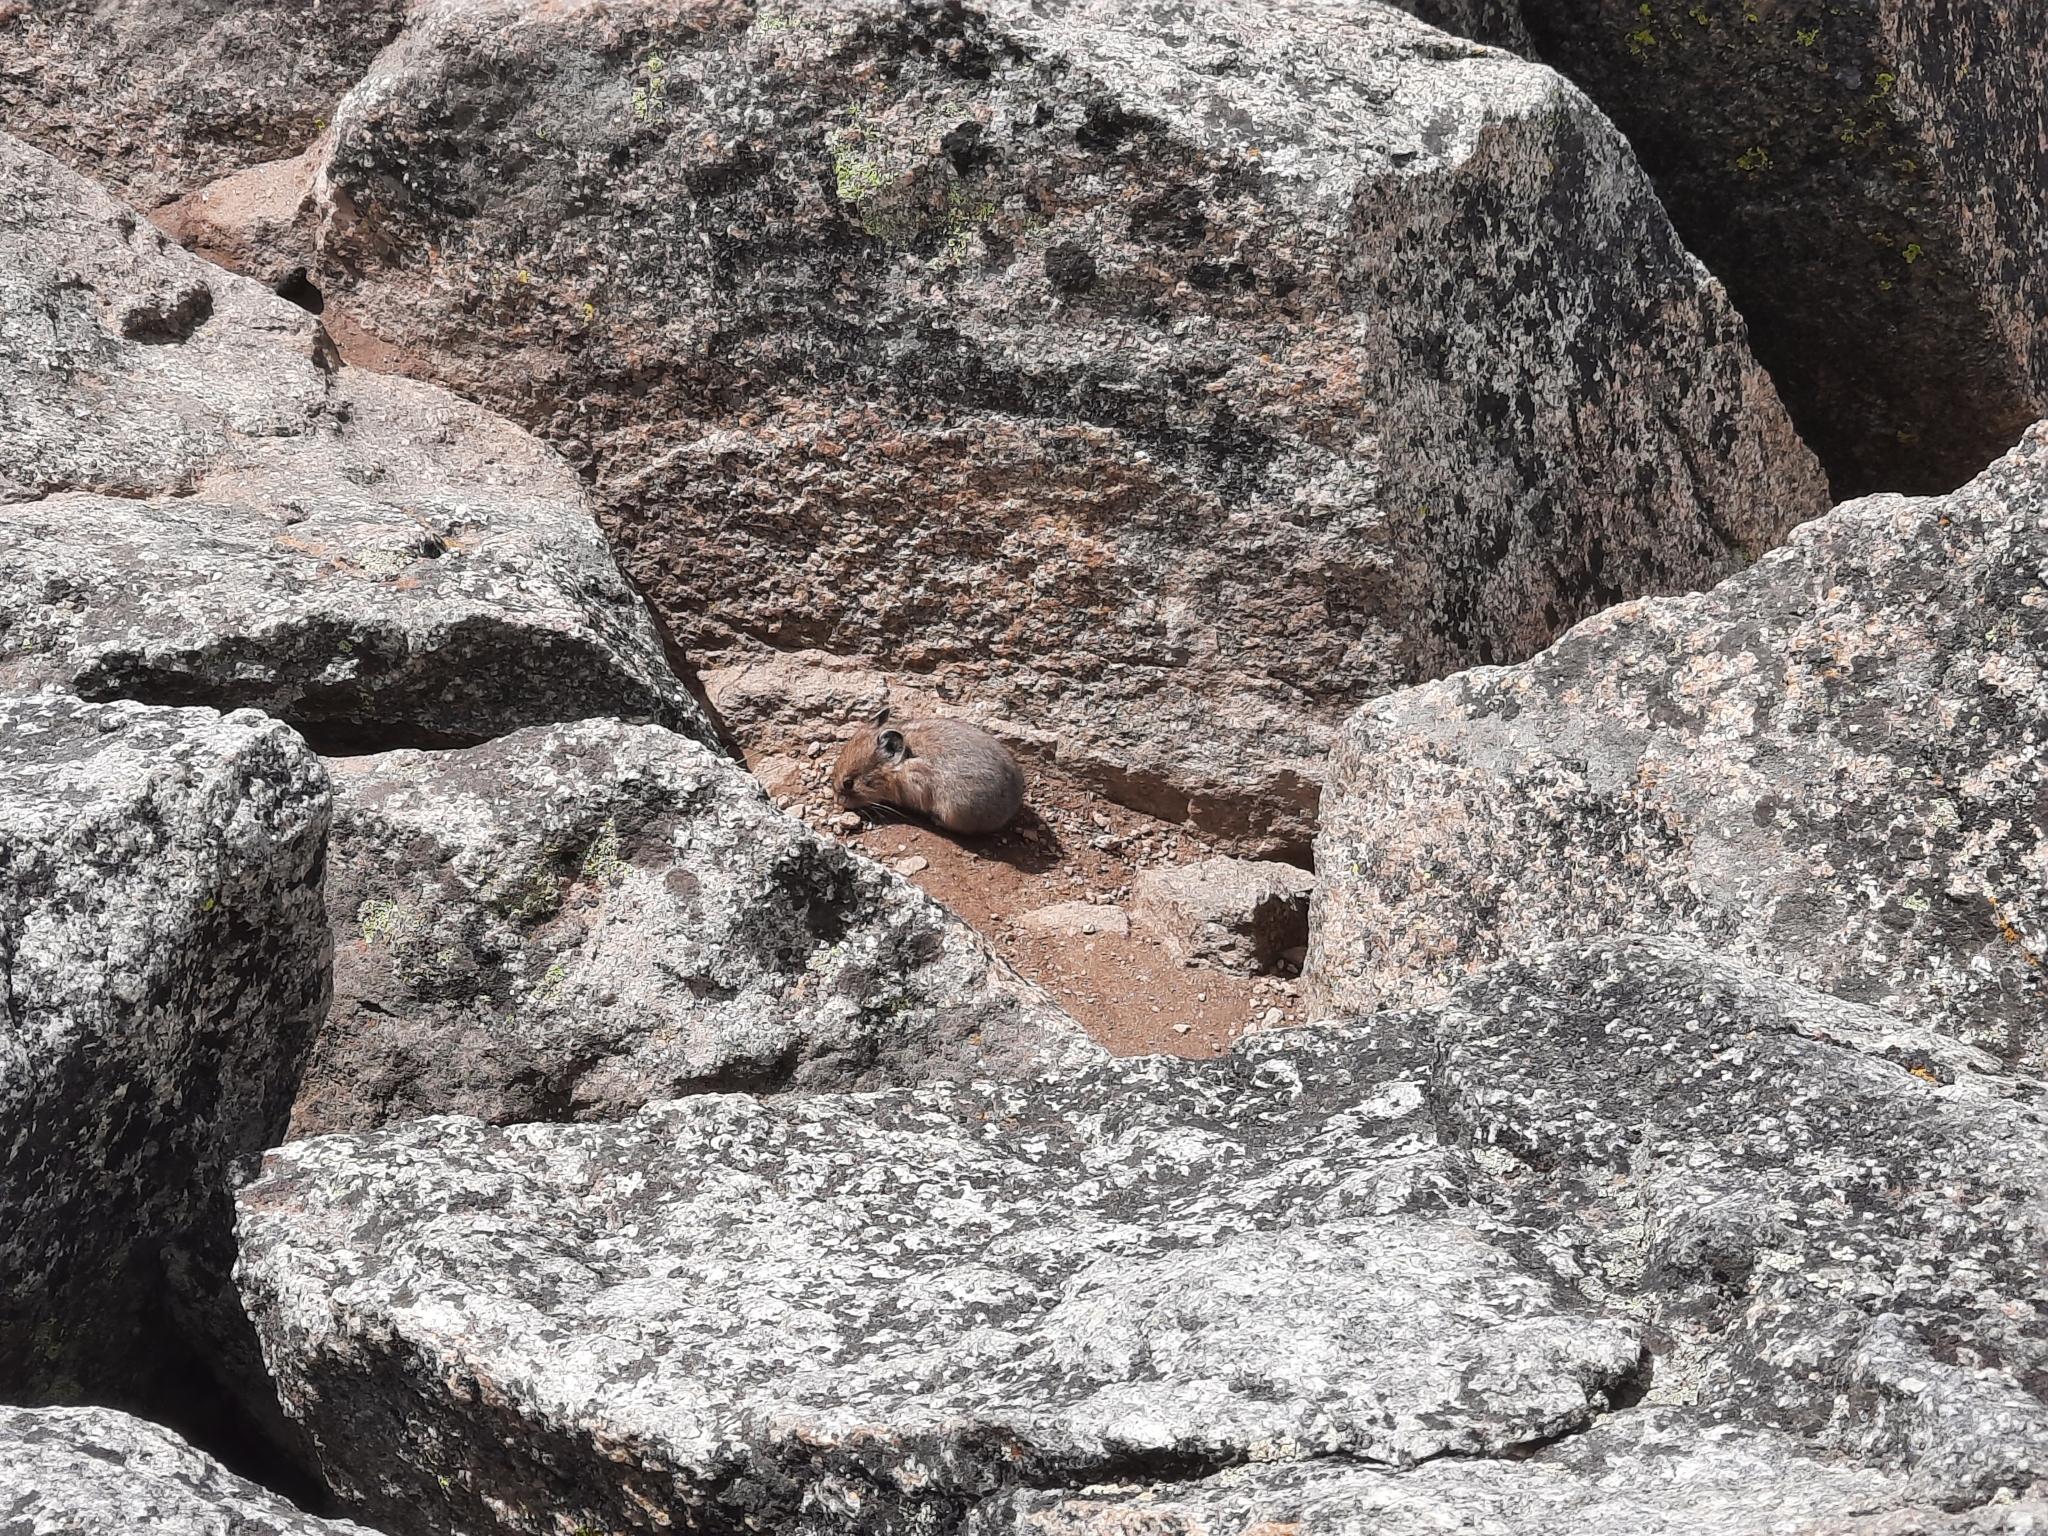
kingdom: Animalia
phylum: Chordata
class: Mammalia
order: Lagomorpha
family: Ochotonidae
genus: Ochotona
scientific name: Ochotona princeps
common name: American pika
